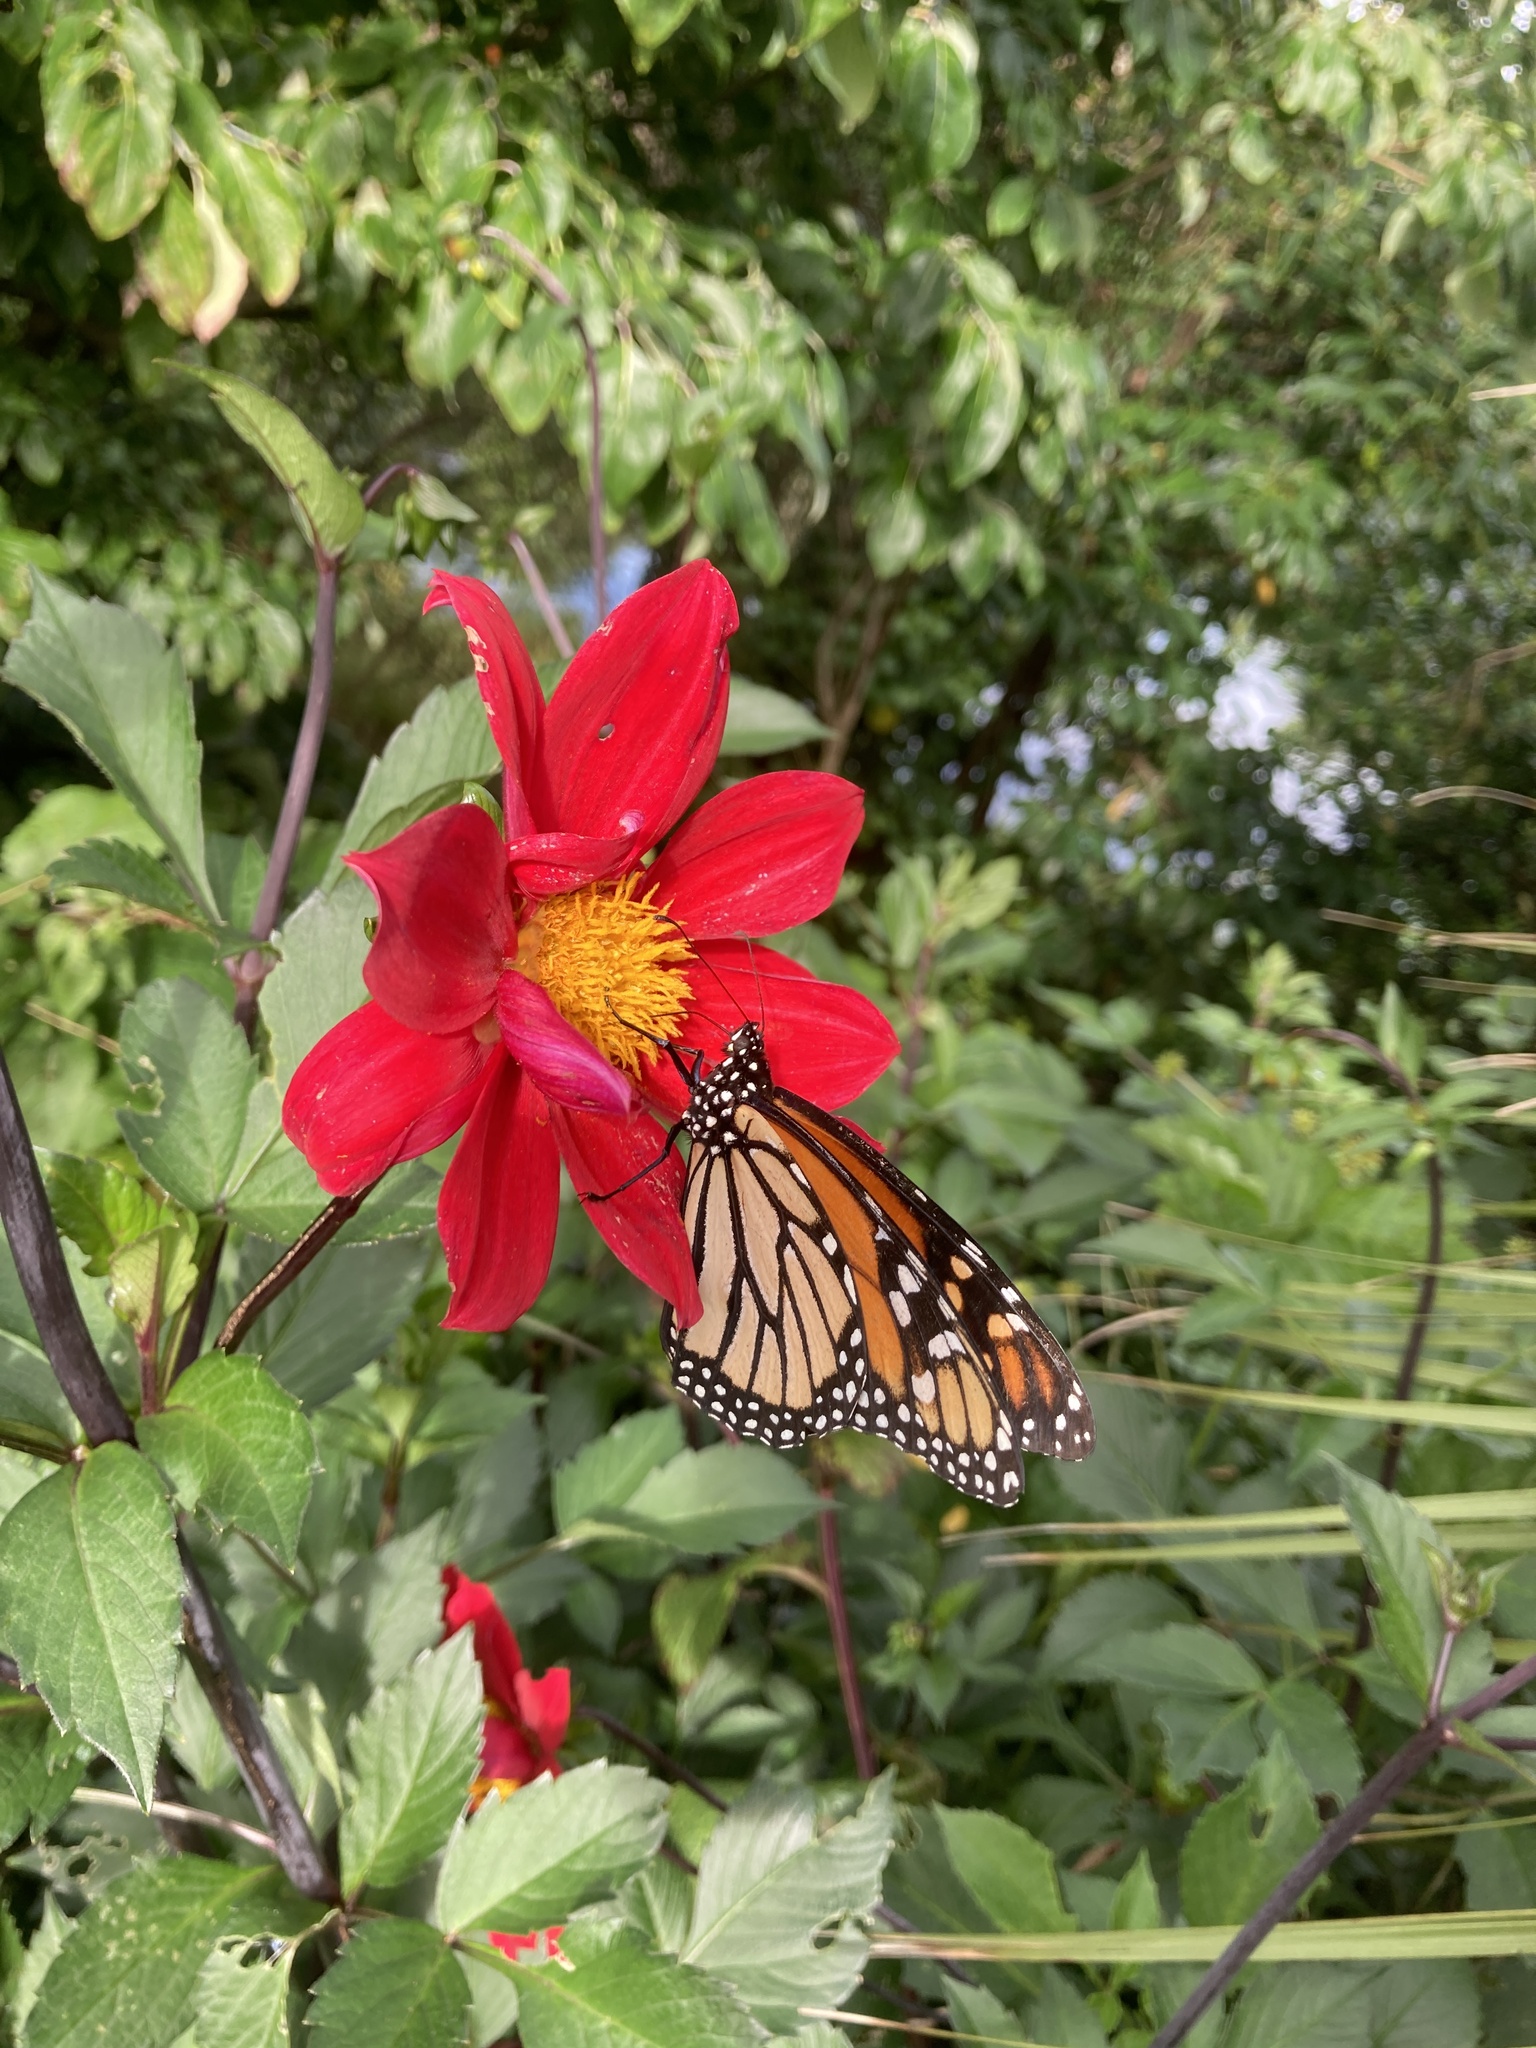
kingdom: Animalia
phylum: Arthropoda
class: Insecta
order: Lepidoptera
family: Nymphalidae
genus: Danaus
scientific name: Danaus plexippus
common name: Monarch
